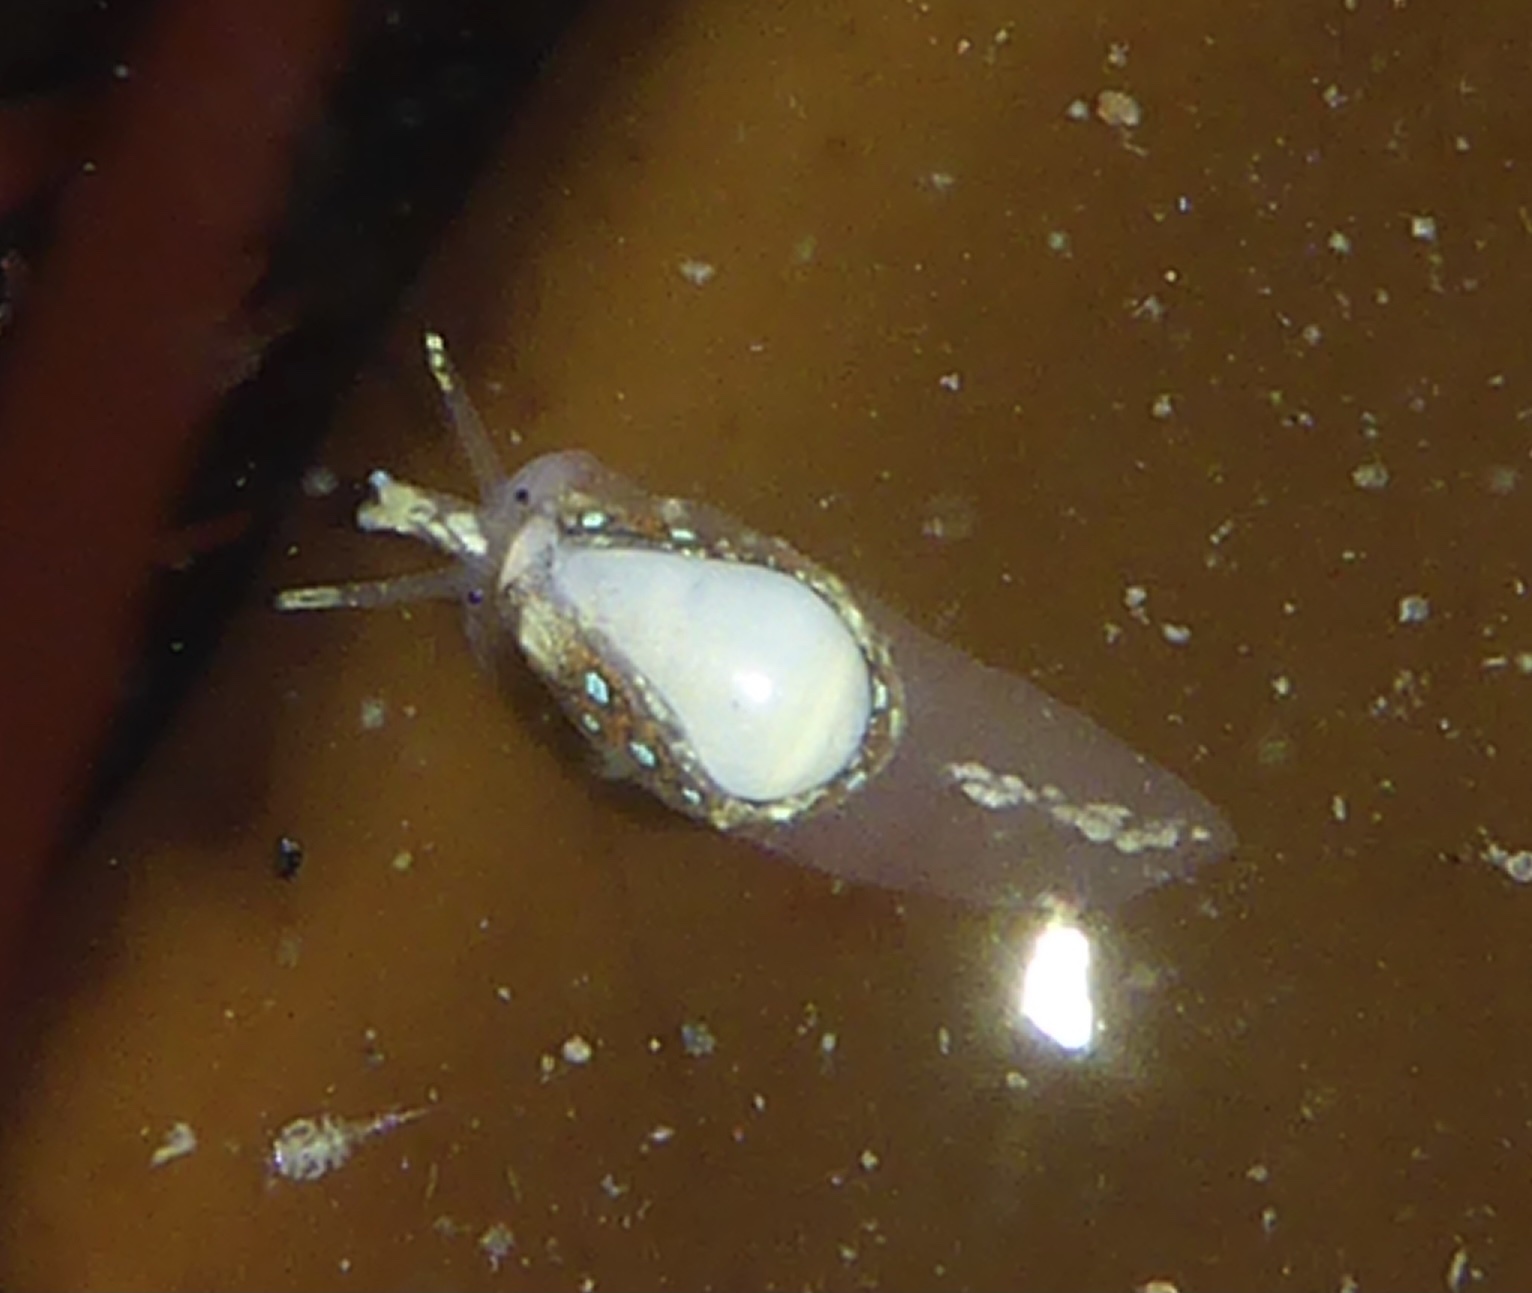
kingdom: Animalia
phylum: Mollusca
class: Gastropoda
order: Neogastropoda
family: Granulinidae
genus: Granulina
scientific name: Granulina margaritula
